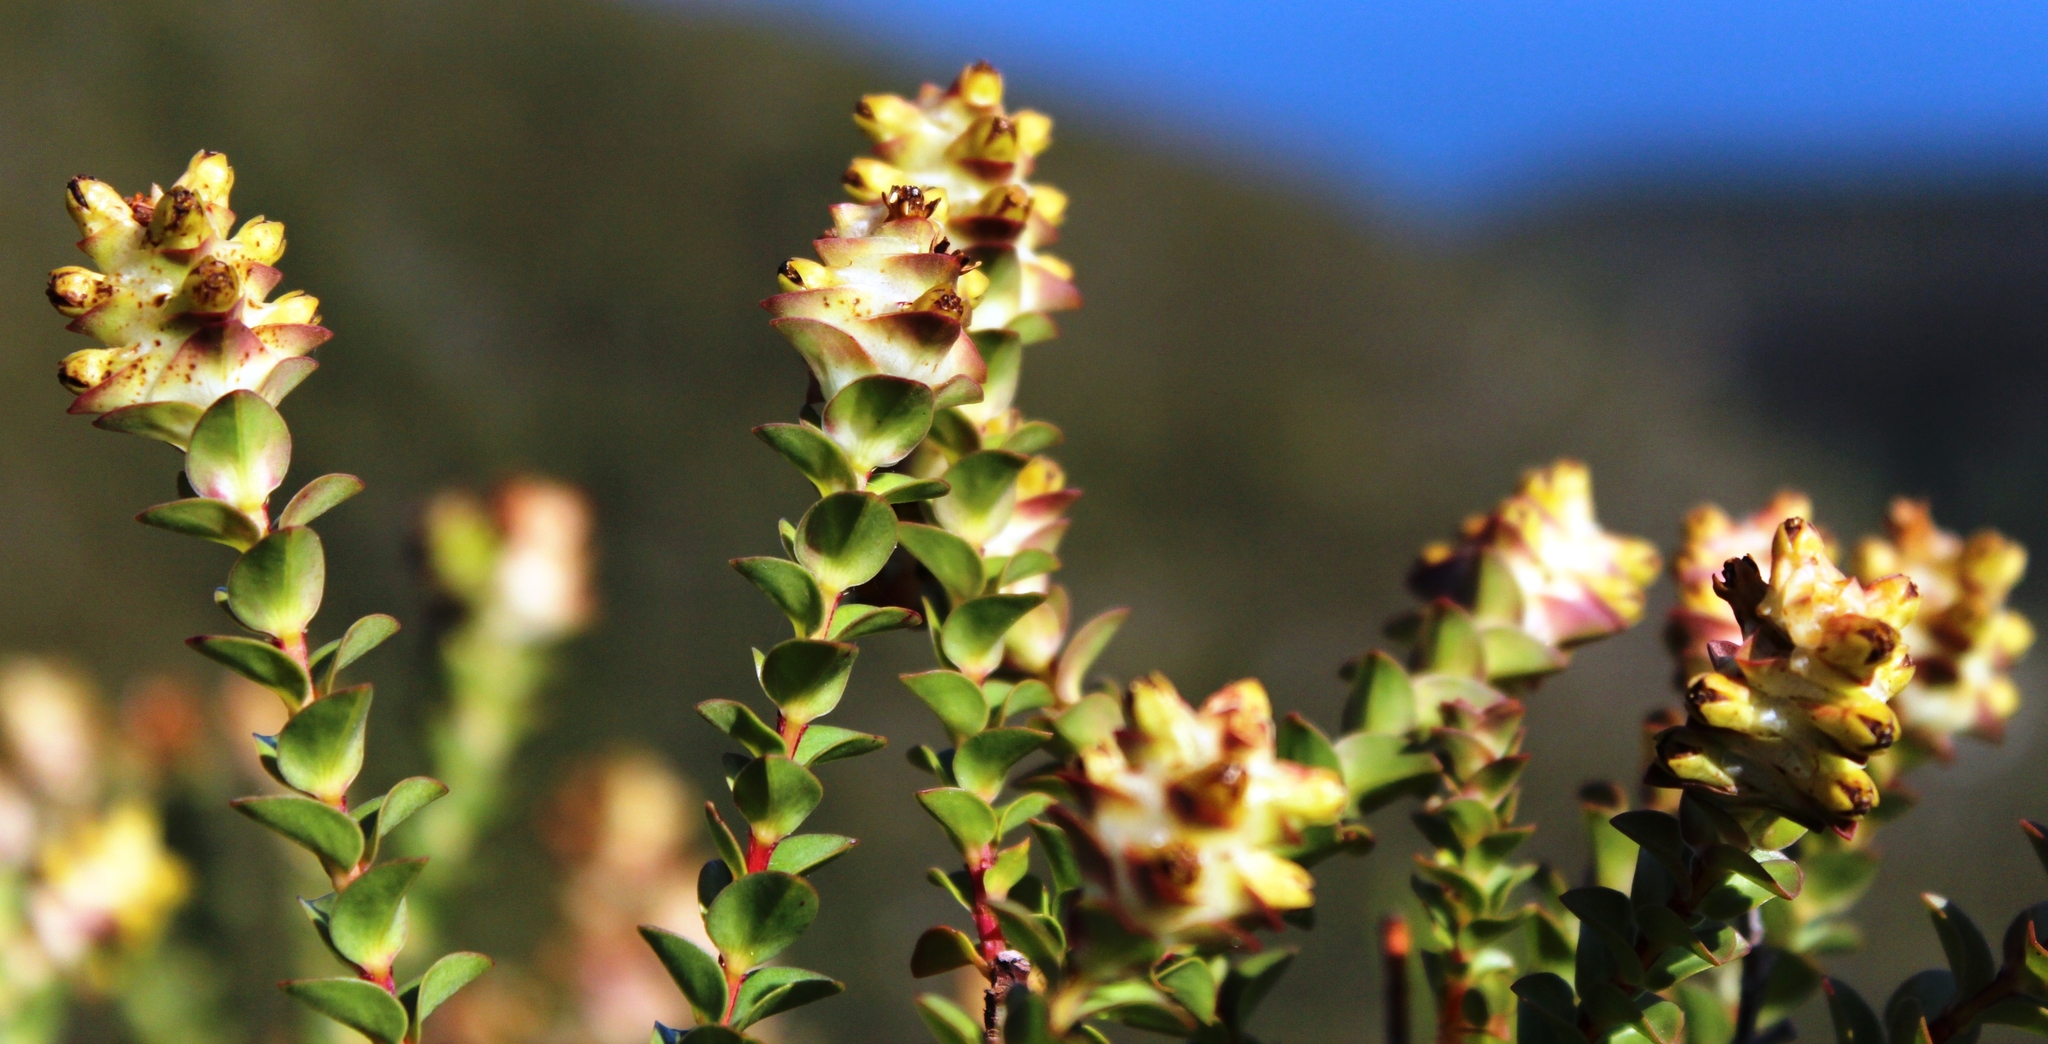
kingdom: Plantae
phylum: Tracheophyta
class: Magnoliopsida
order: Myrtales
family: Penaeaceae
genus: Penaea
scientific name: Penaea cneorum
